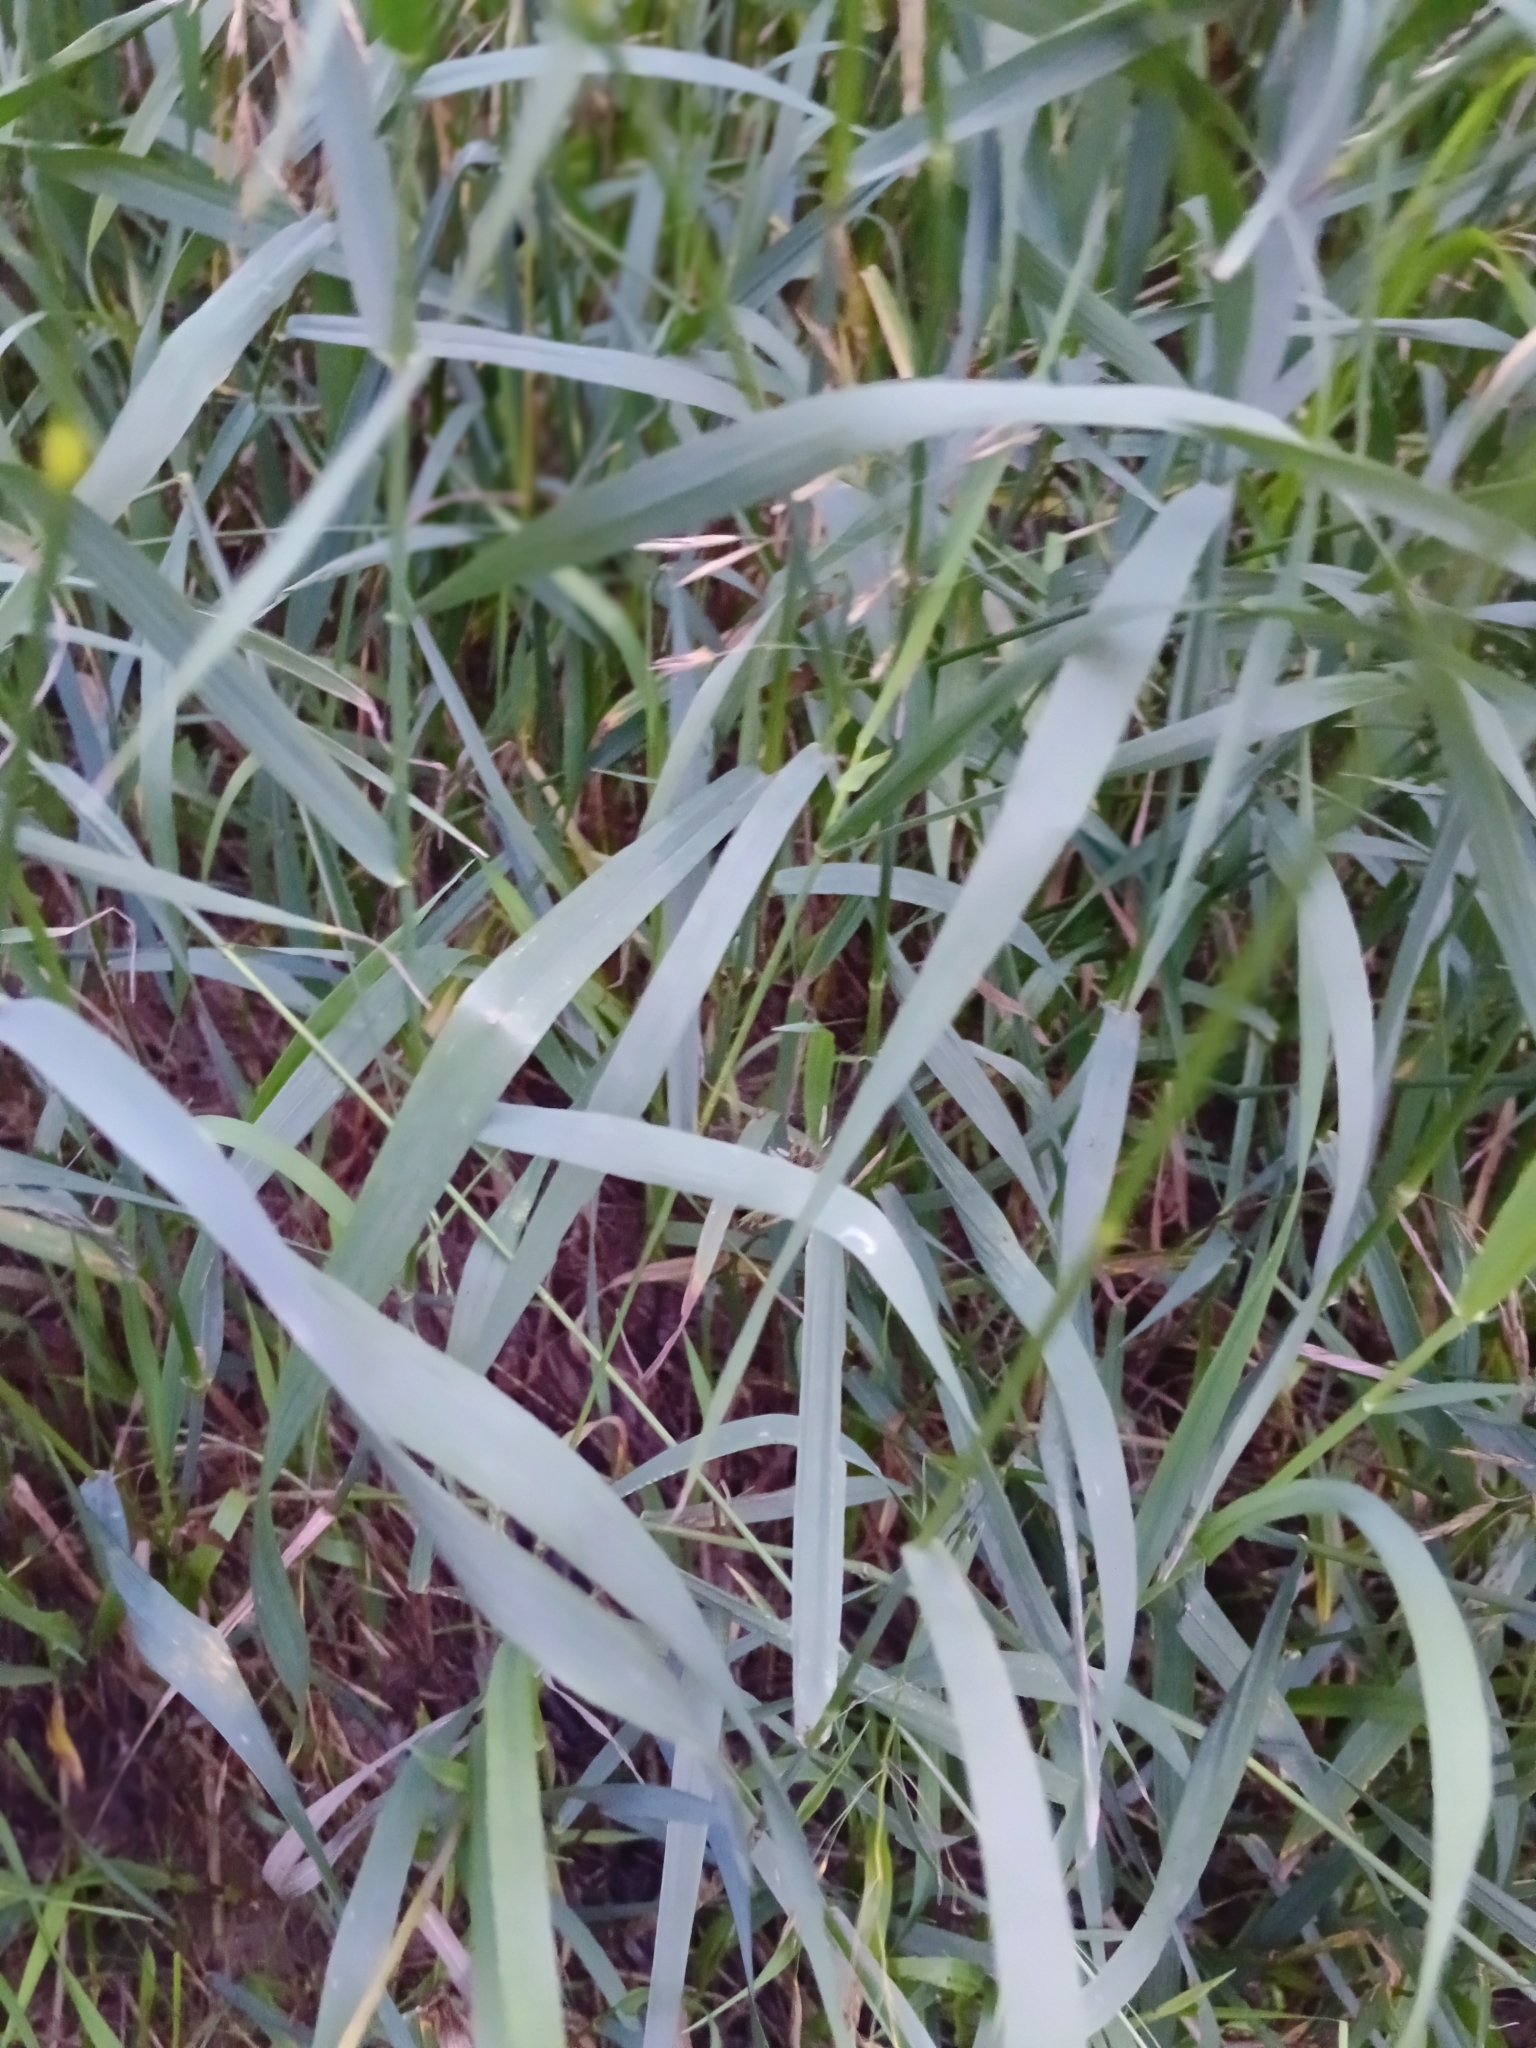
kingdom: Plantae
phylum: Tracheophyta
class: Liliopsida
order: Poales
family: Poaceae
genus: Bromus
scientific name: Bromus inermis
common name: Smooth brome
